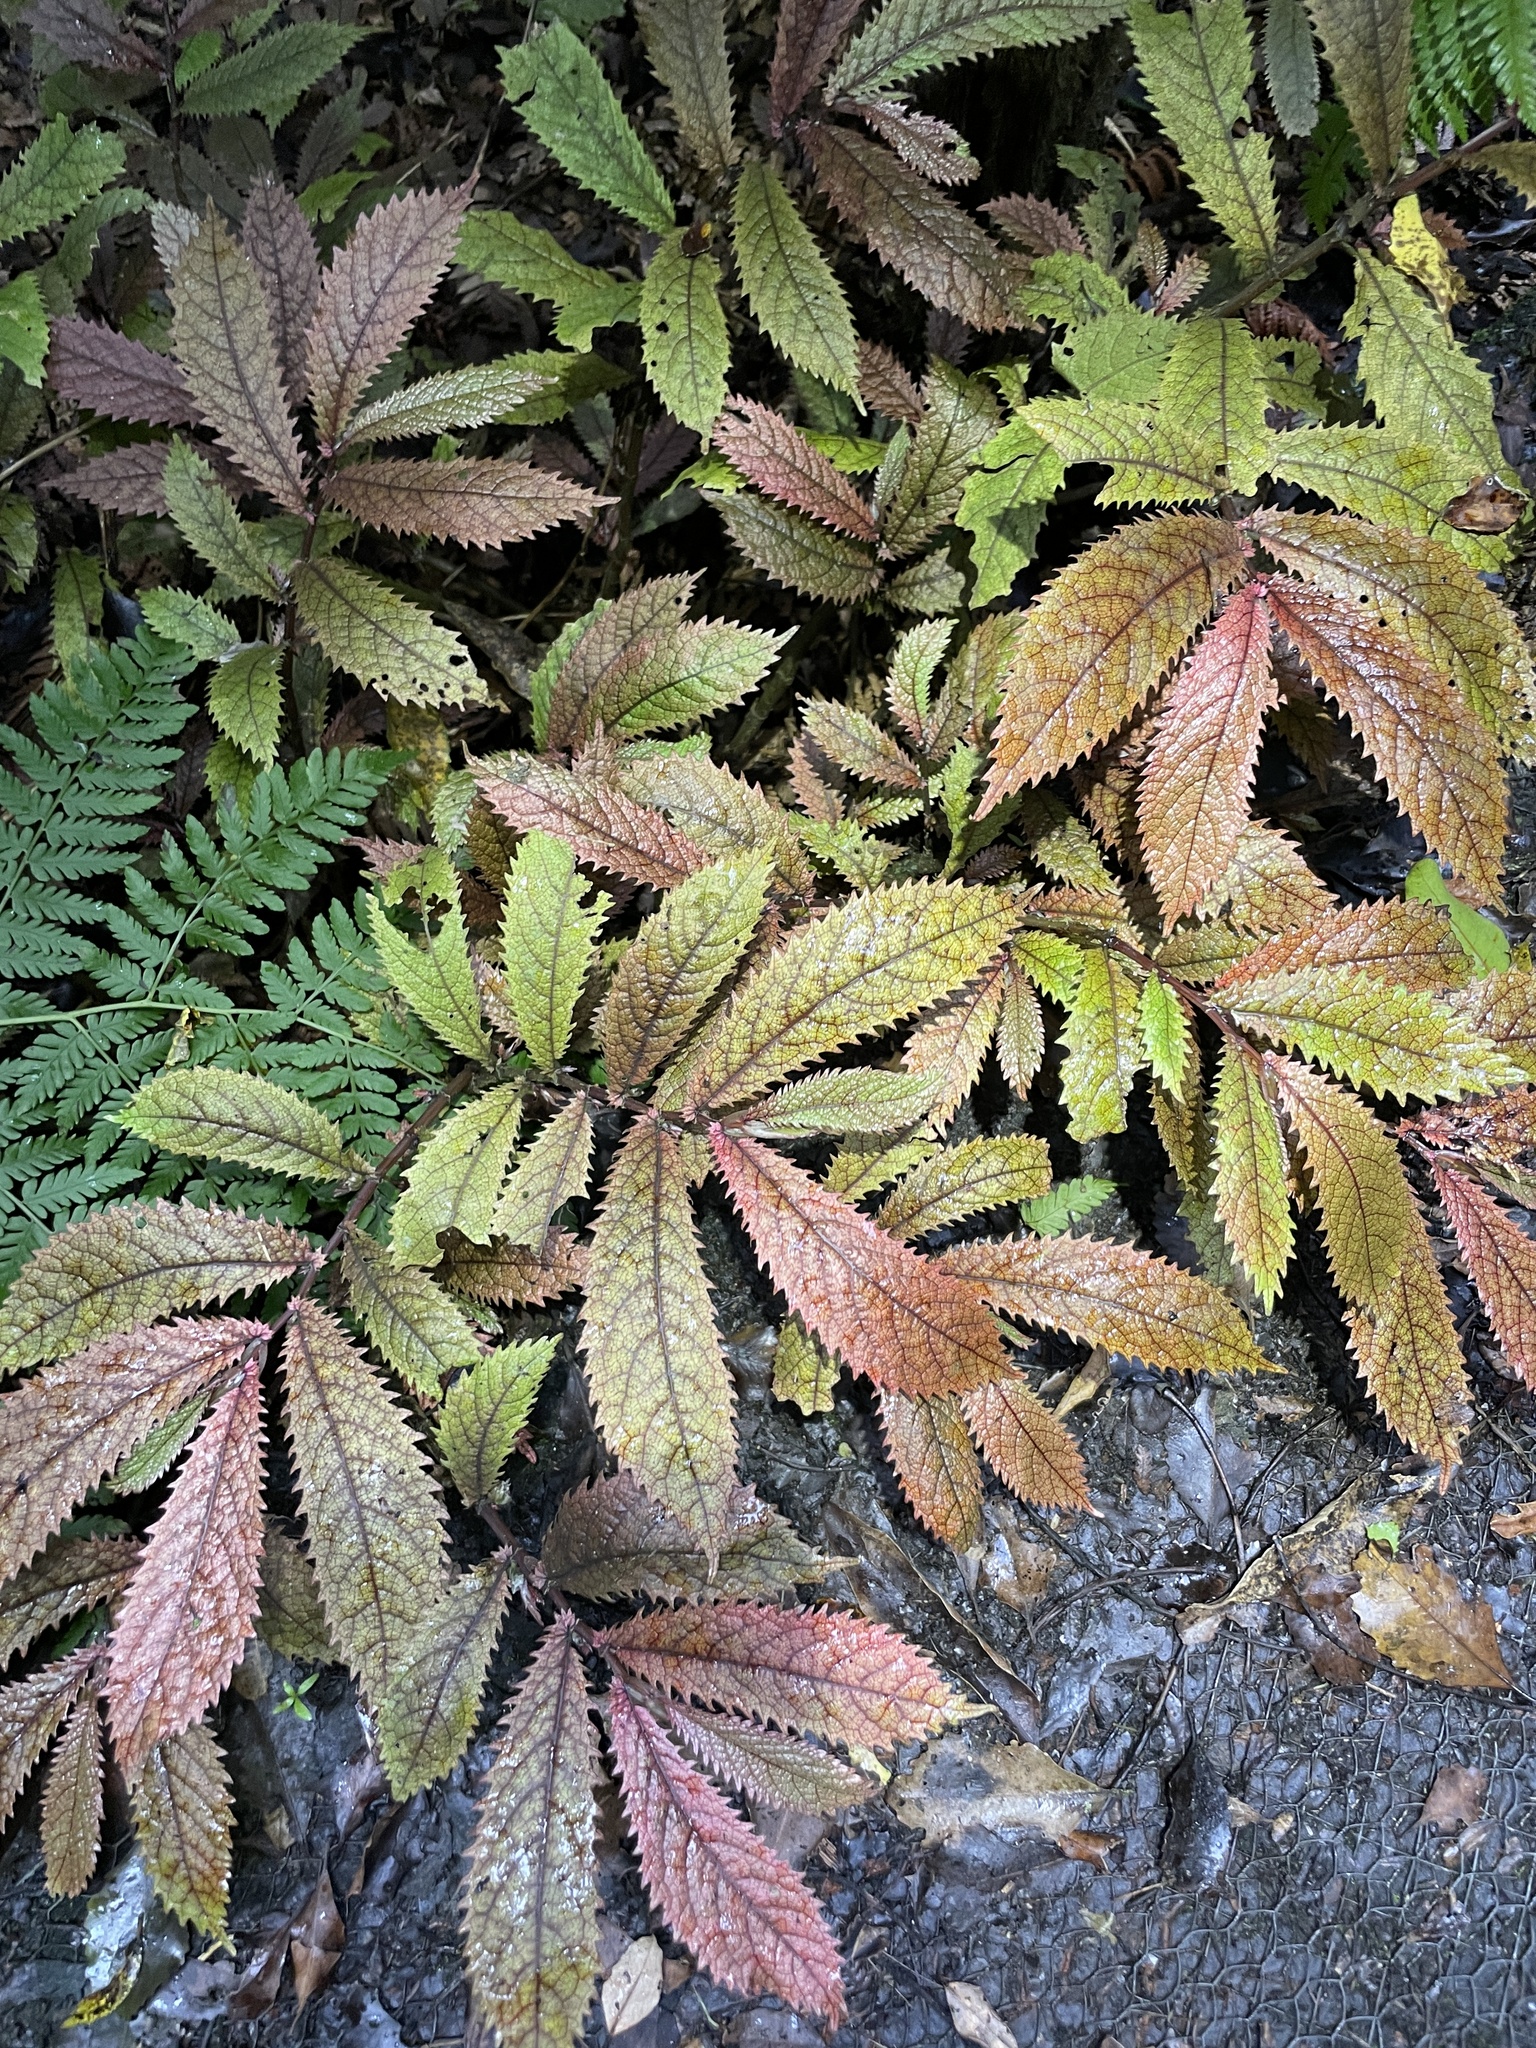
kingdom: Plantae
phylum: Tracheophyta
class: Magnoliopsida
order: Rosales
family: Urticaceae
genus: Elatostema
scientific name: Elatostema rugosum
